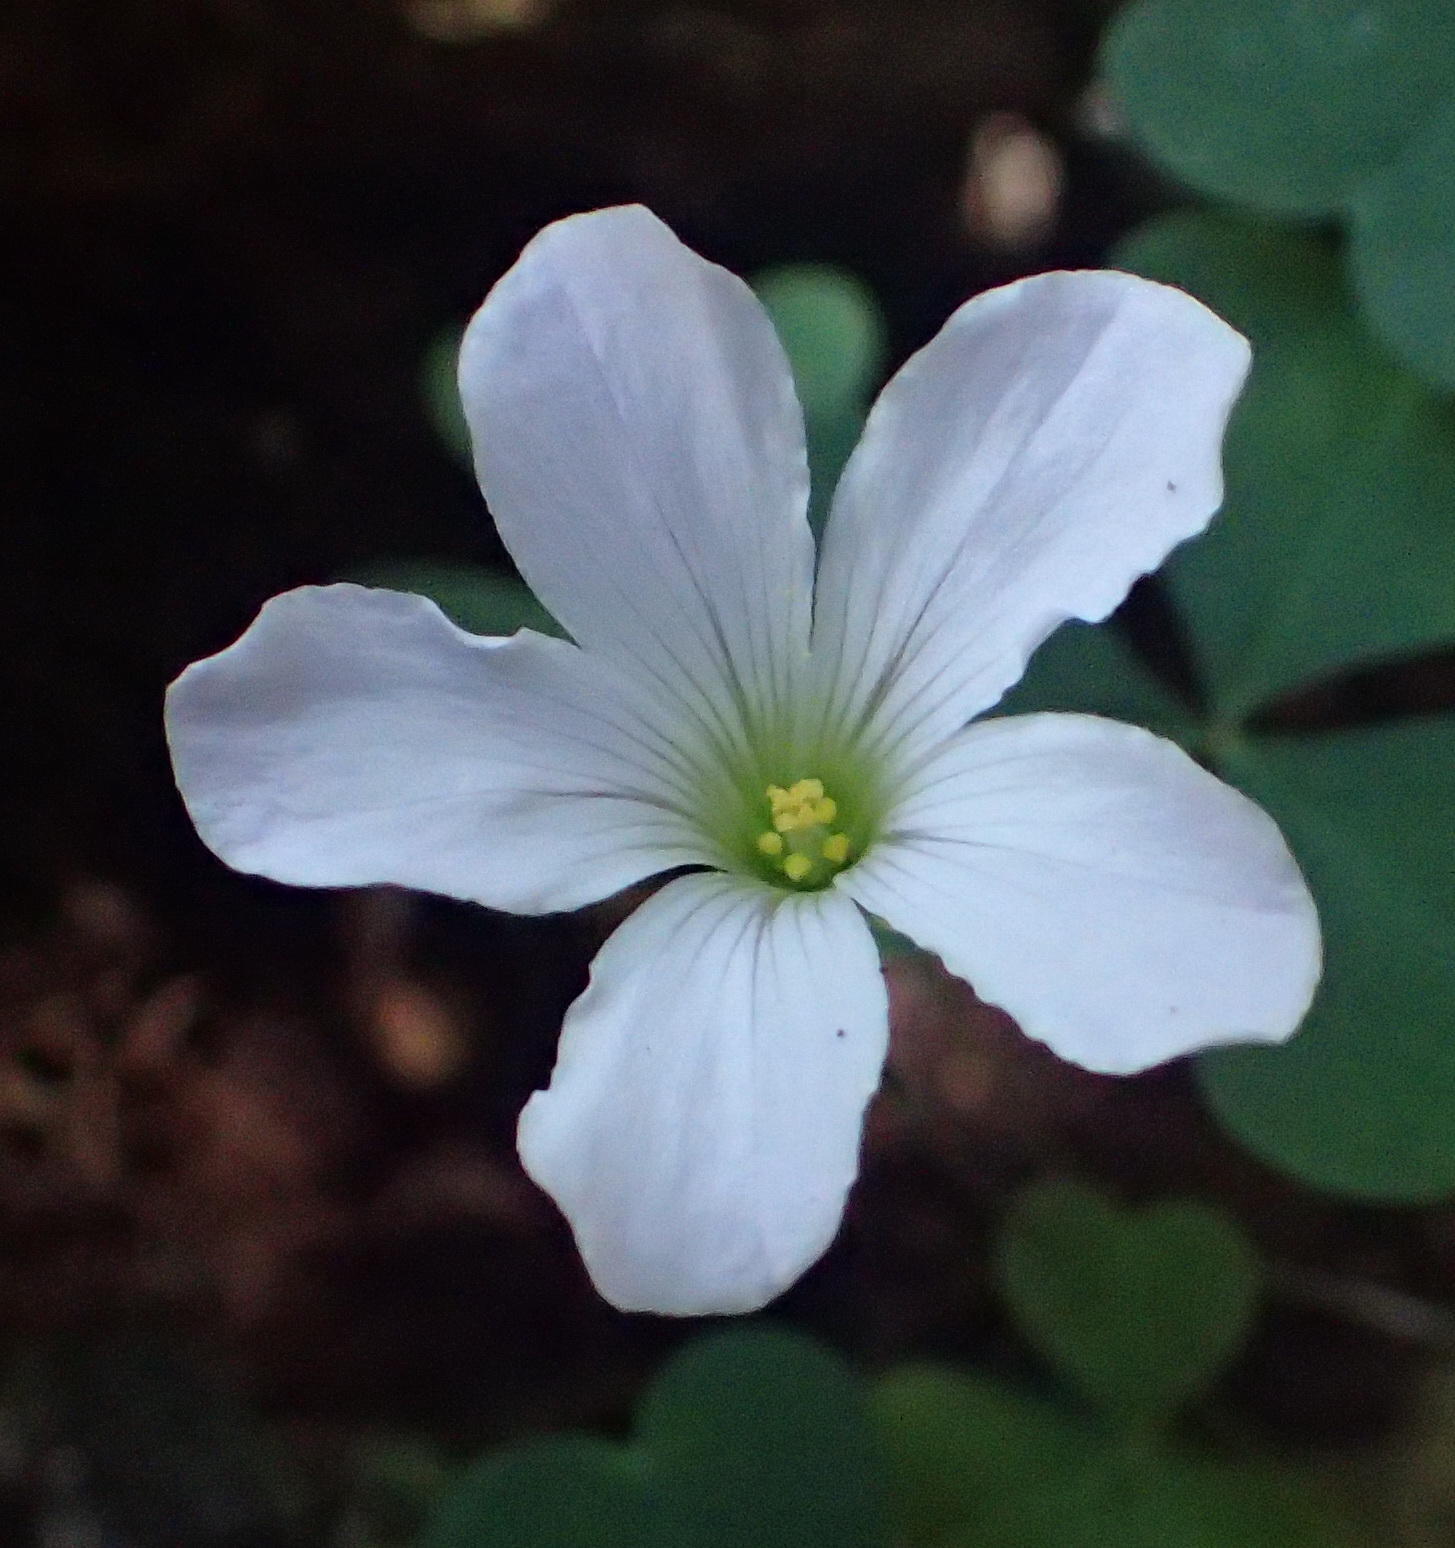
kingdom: Plantae
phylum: Tracheophyta
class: Magnoliopsida
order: Oxalidales
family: Oxalidaceae
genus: Oxalis
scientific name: Oxalis incarnata
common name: Pale pink-sorrel
